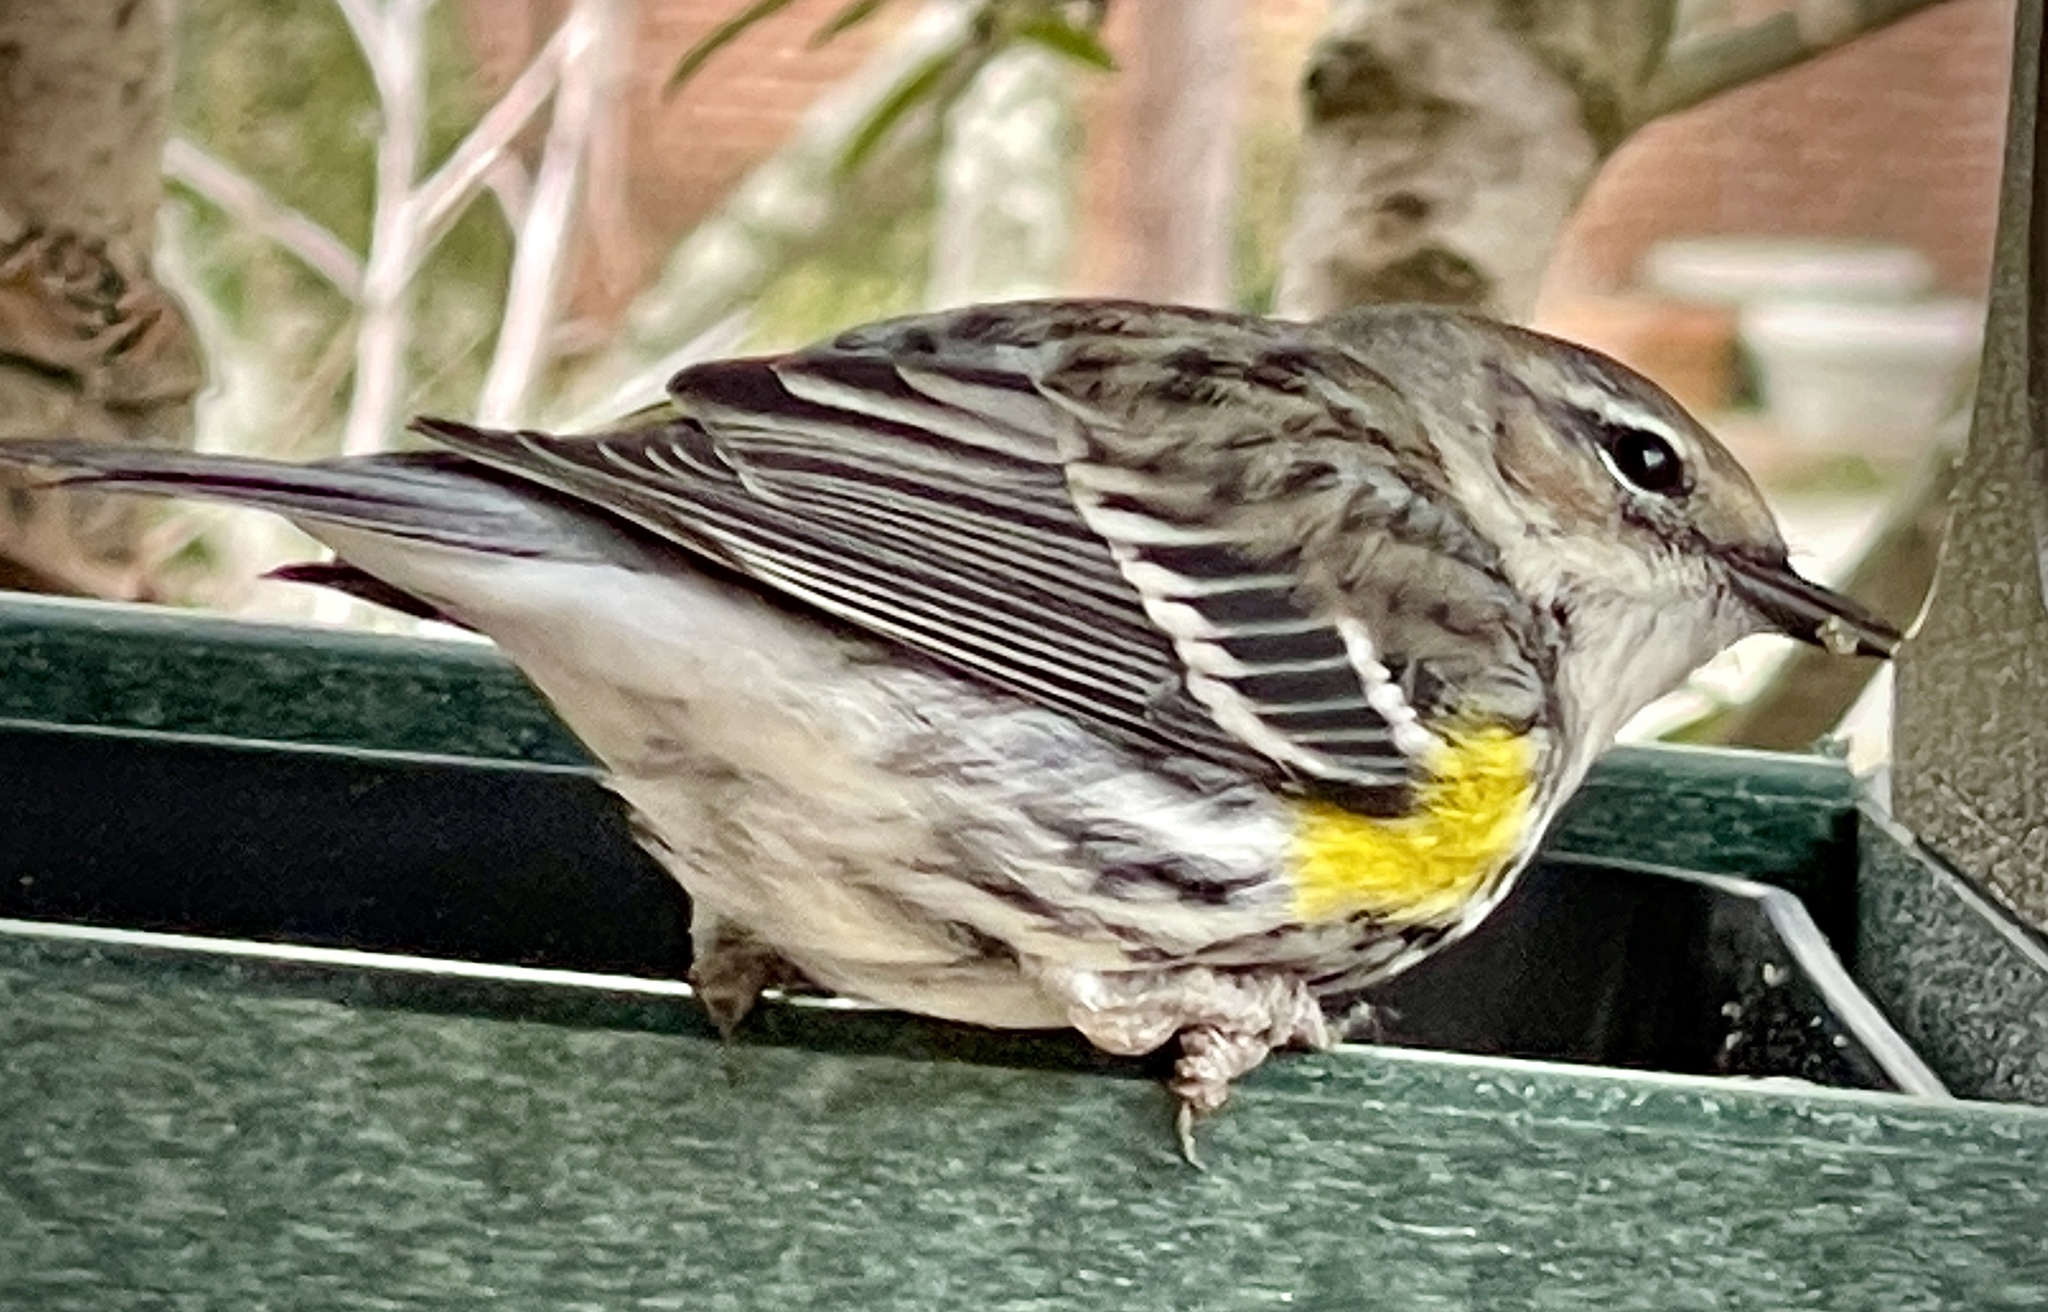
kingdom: Animalia
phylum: Chordata
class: Aves
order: Passeriformes
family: Parulidae
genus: Setophaga
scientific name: Setophaga coronata
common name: Myrtle warbler
